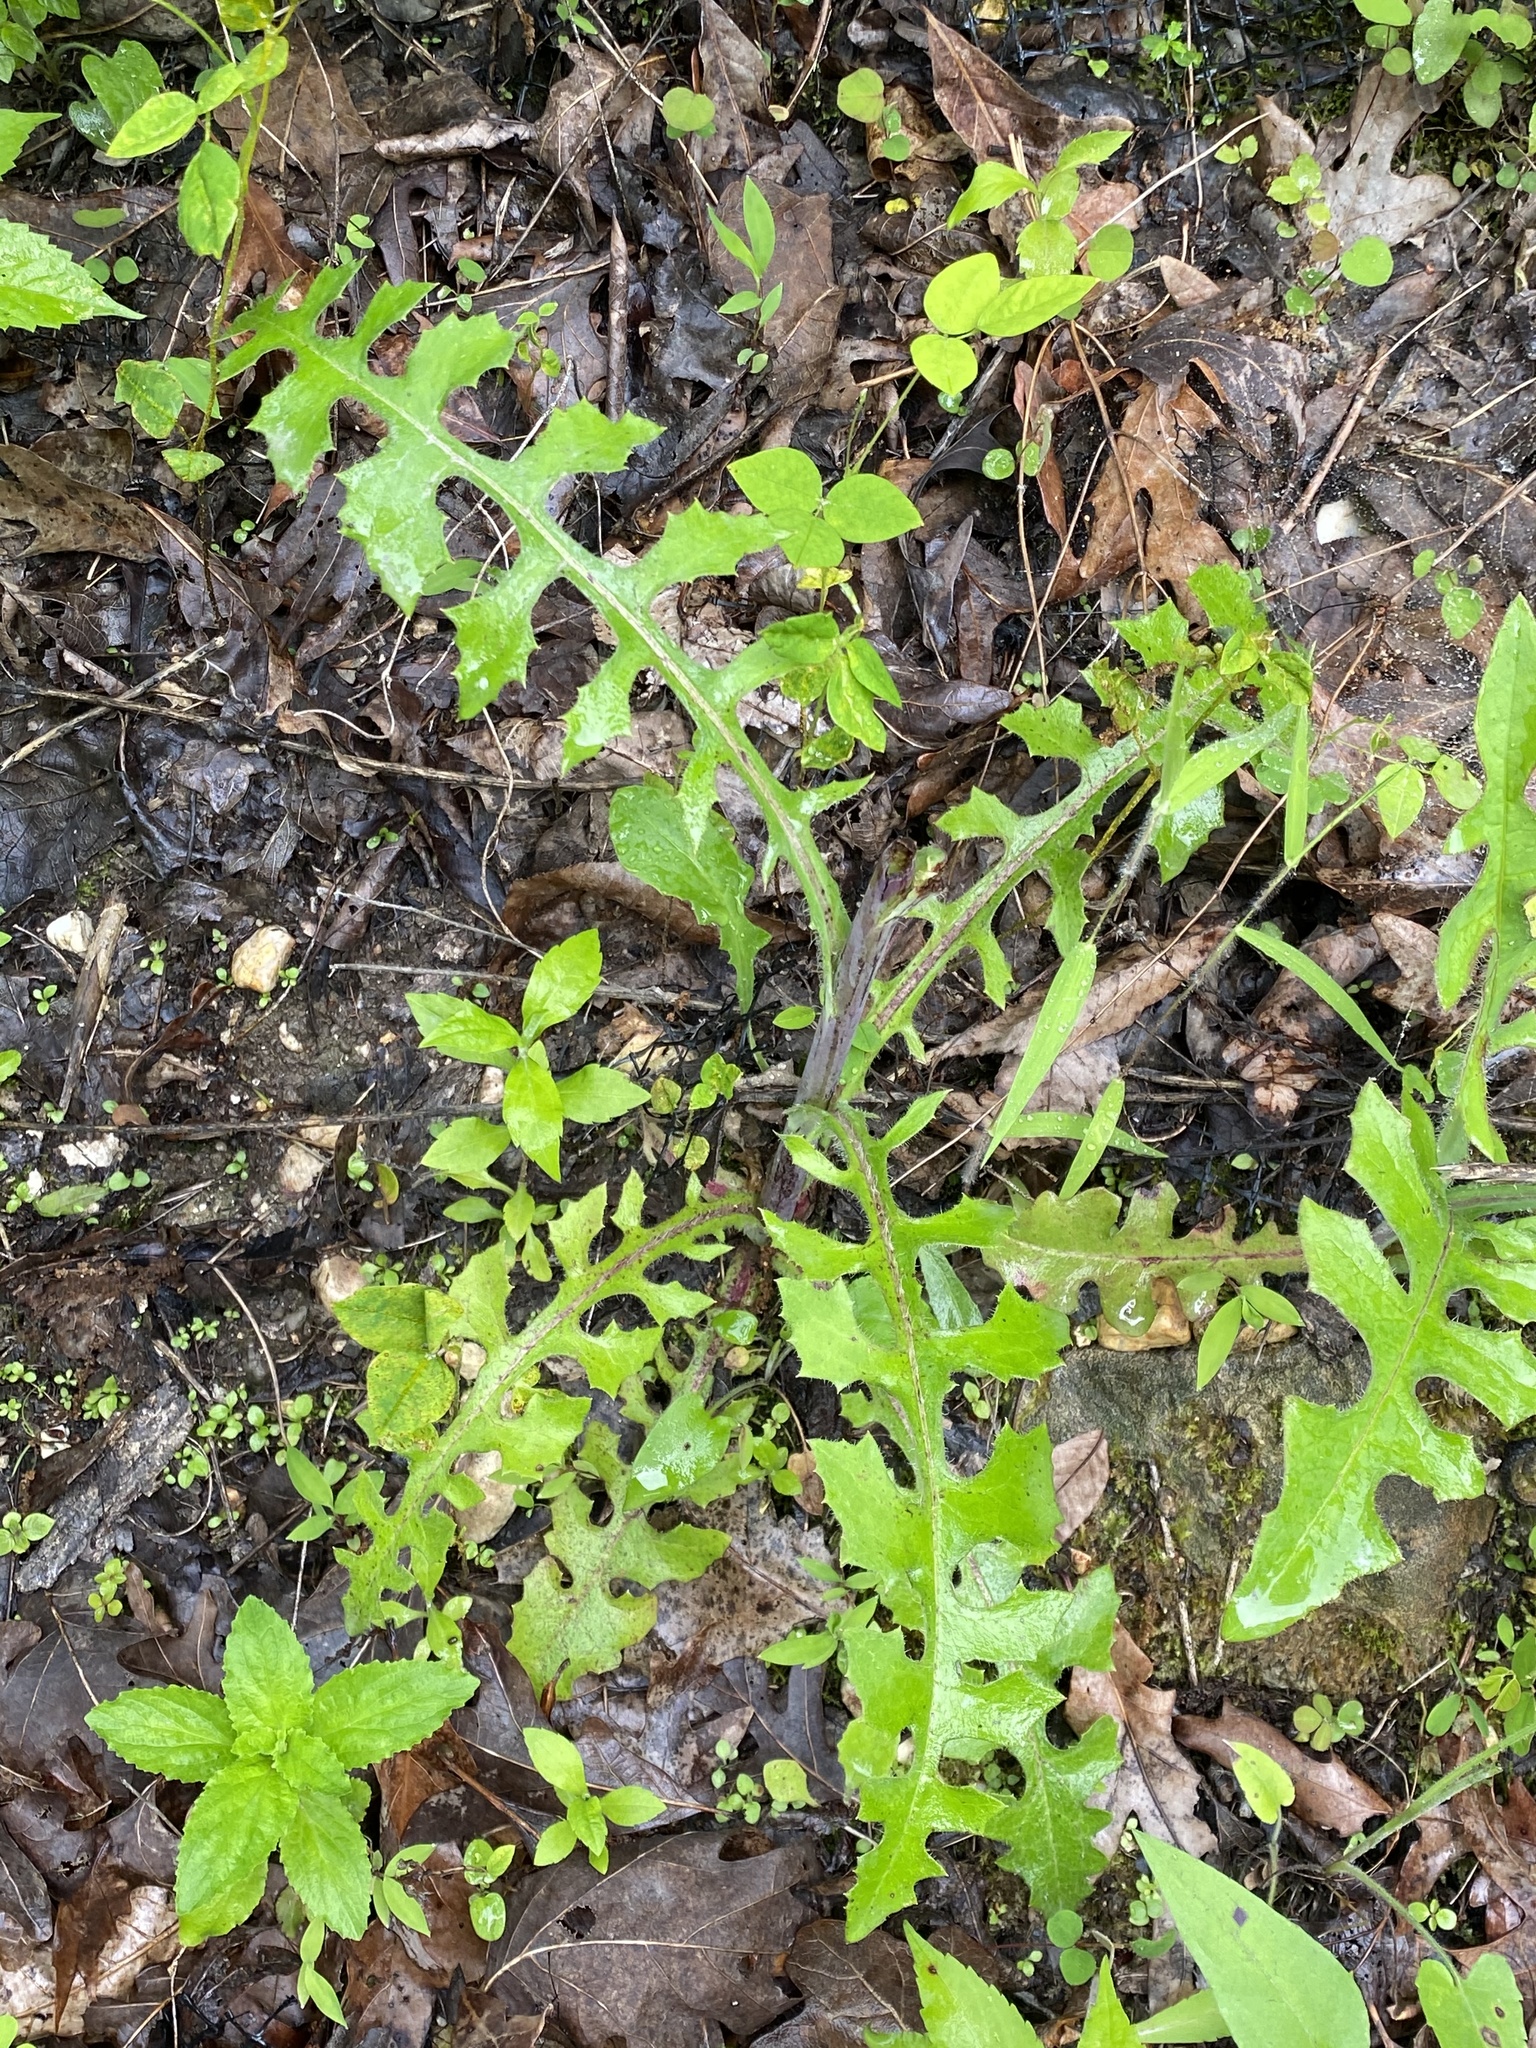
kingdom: Plantae
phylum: Tracheophyta
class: Magnoliopsida
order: Asterales
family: Asteraceae
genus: Lactuca
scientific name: Lactuca hirsuta
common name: Hairy lettuce
